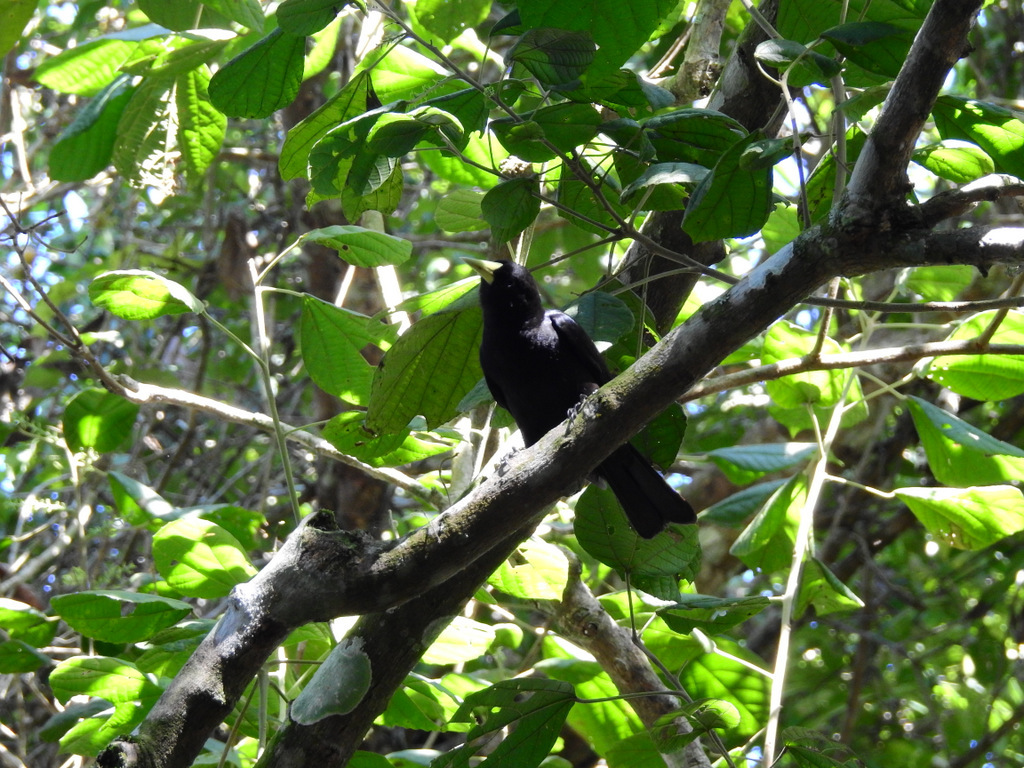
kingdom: Animalia
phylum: Chordata
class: Aves
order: Passeriformes
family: Icteridae
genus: Cacicus
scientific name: Cacicus haemorrhous
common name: Red-rumped cacique
